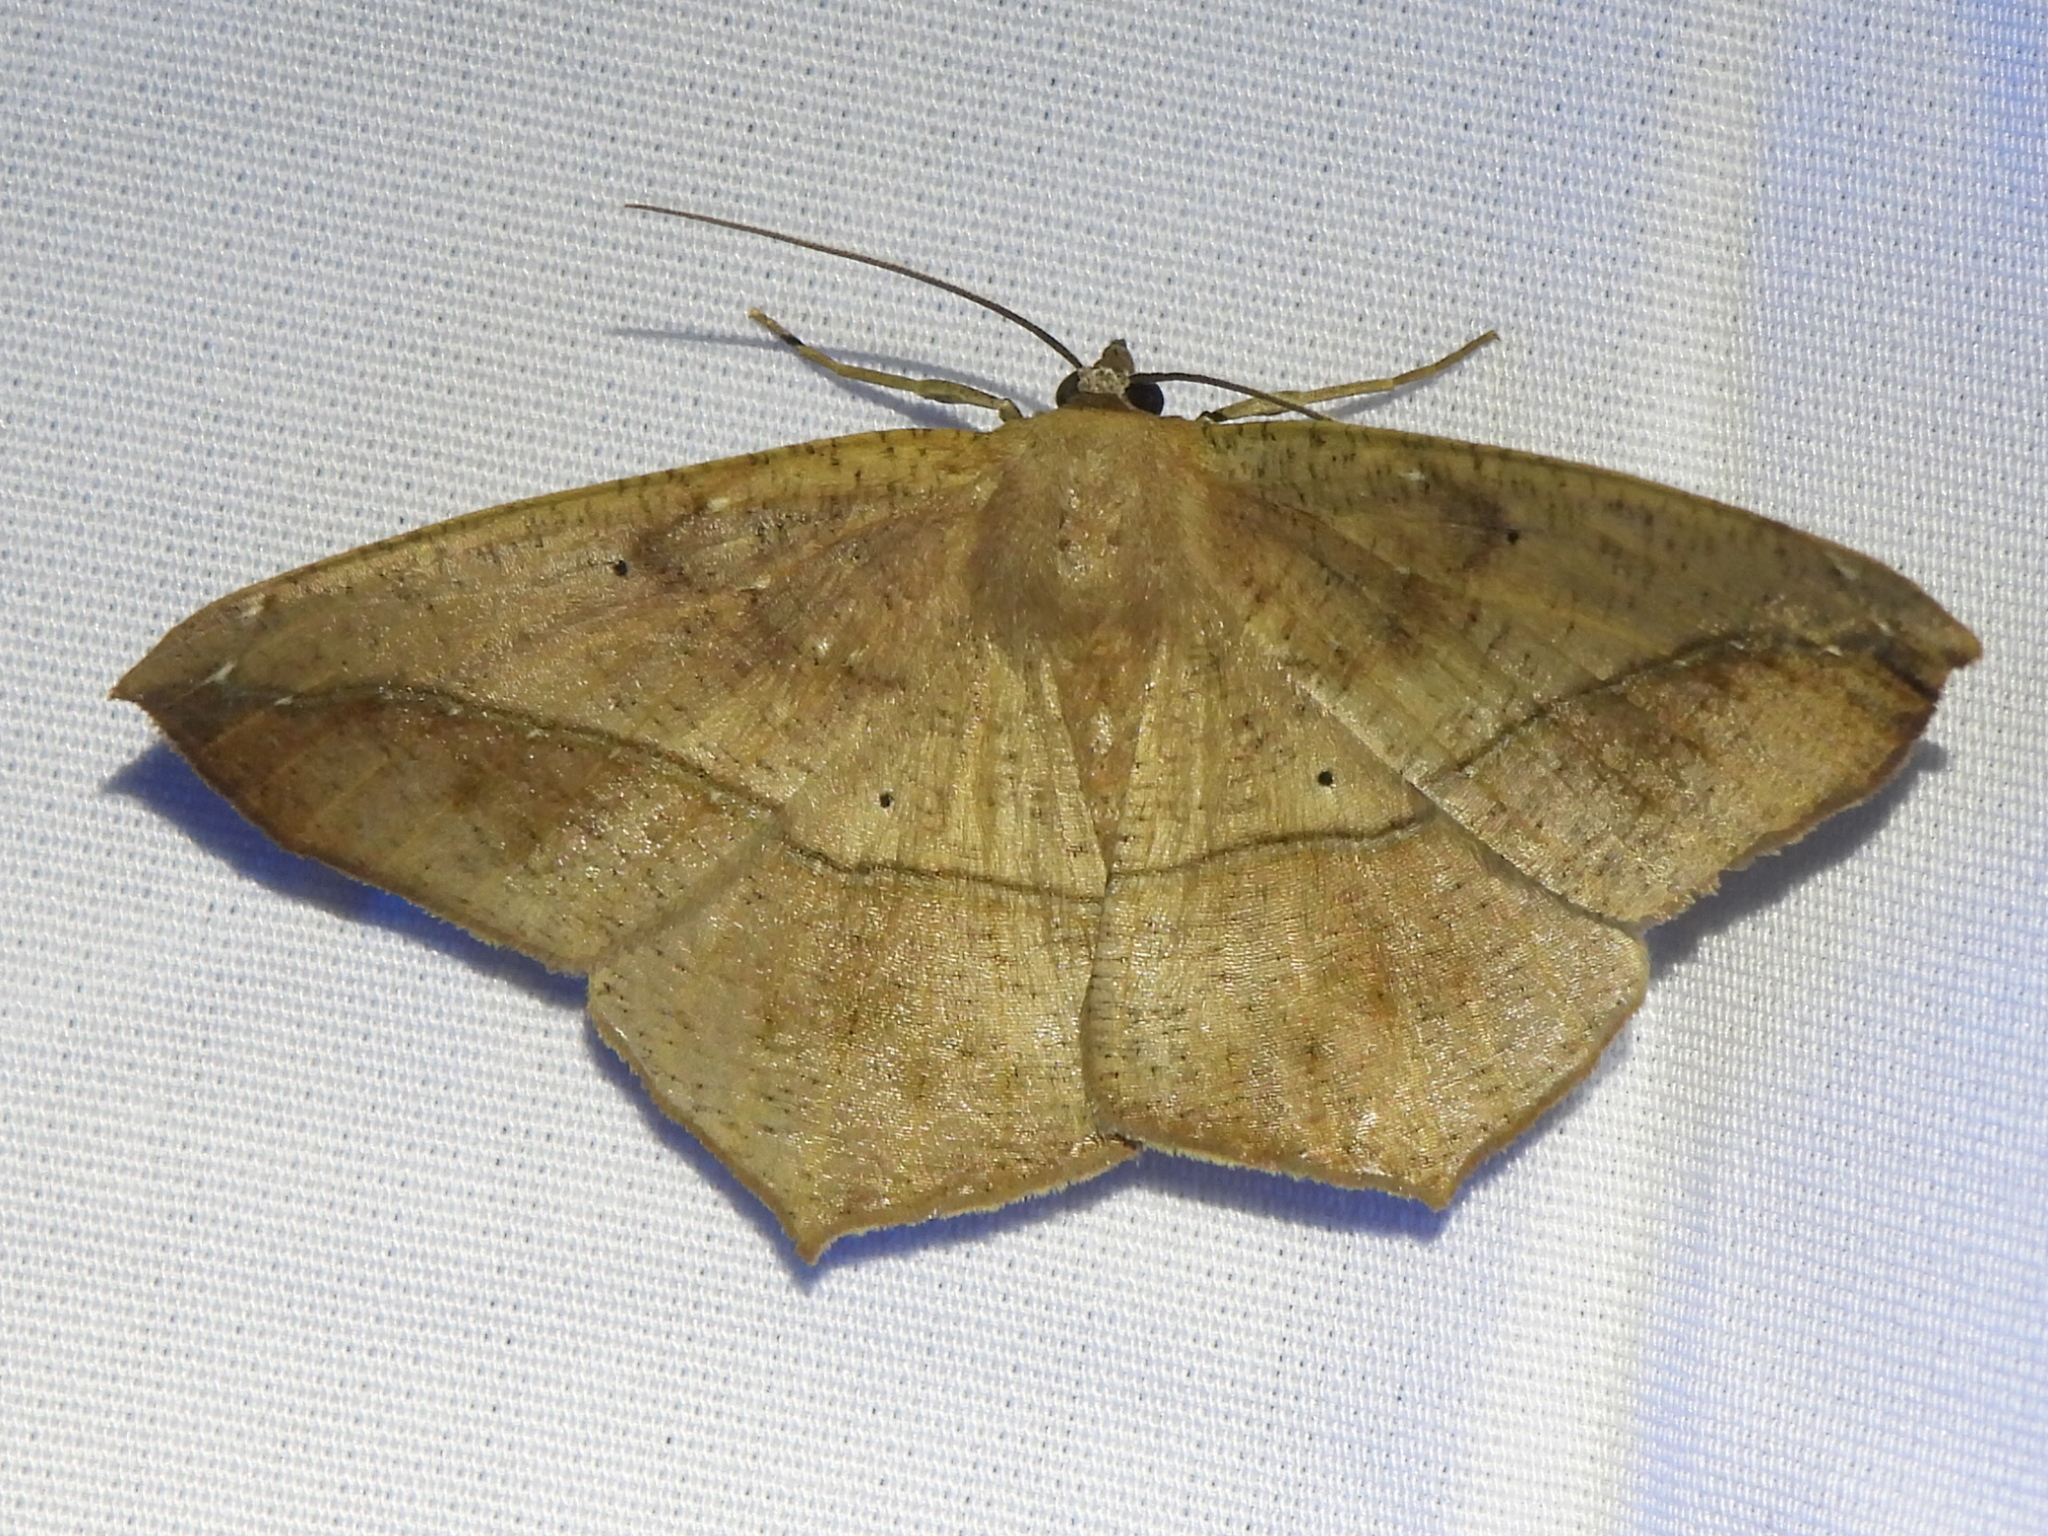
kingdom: Animalia
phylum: Arthropoda
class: Insecta
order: Lepidoptera
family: Geometridae
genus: Prochoerodes
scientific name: Prochoerodes lineola
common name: Large maple spanworm
